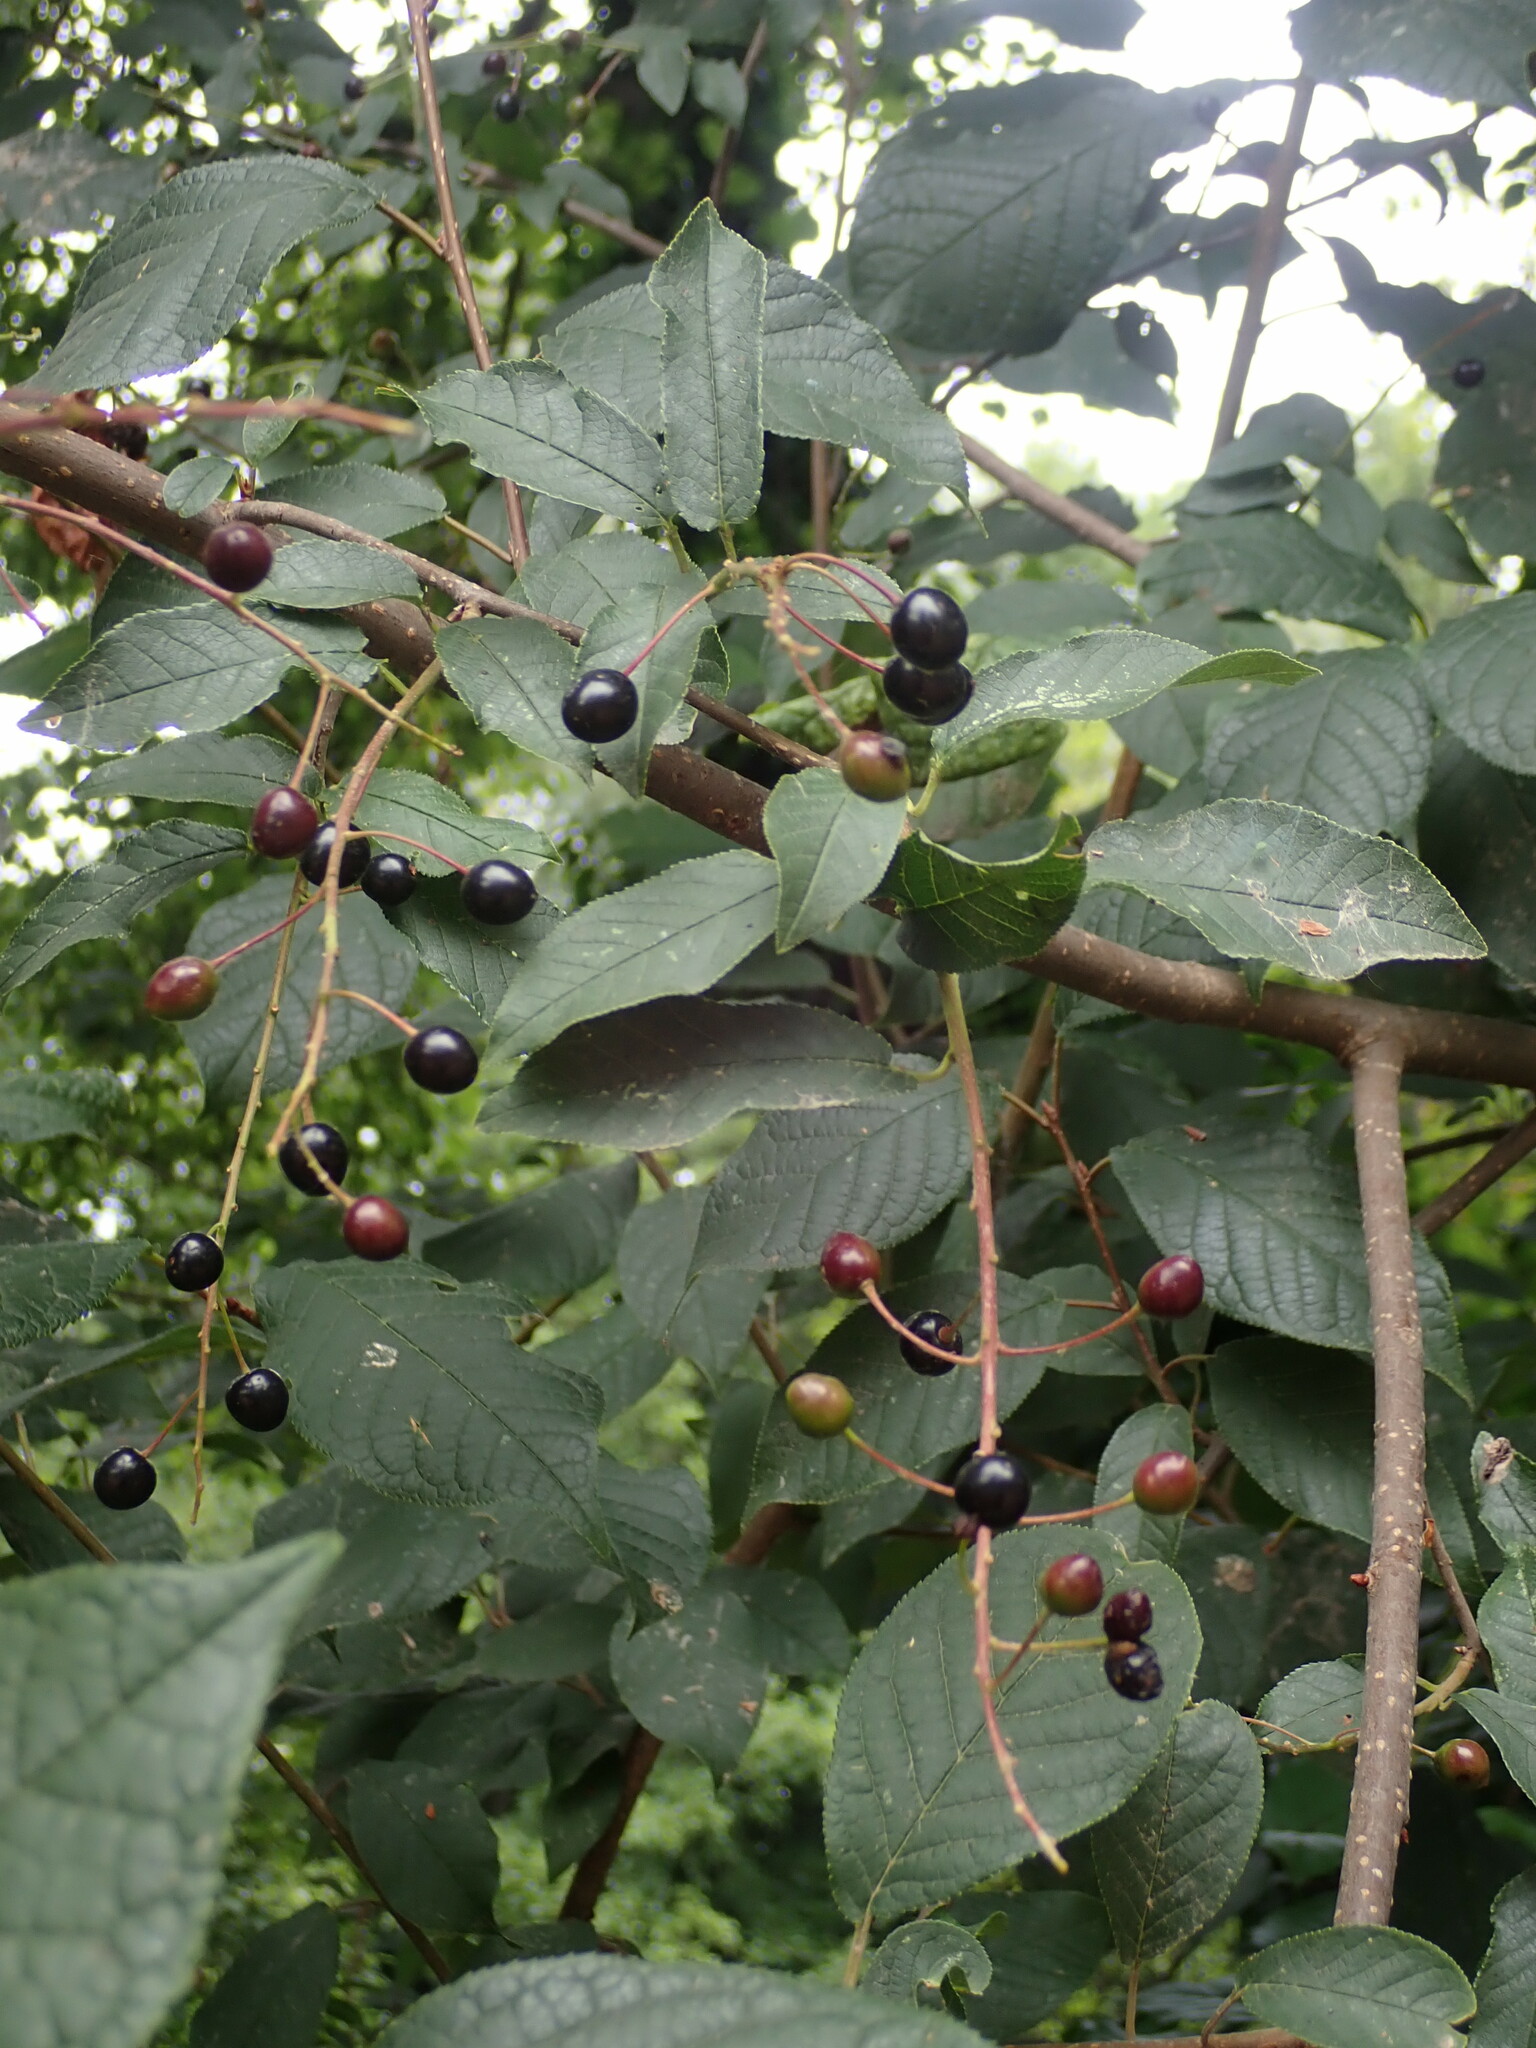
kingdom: Plantae
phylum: Tracheophyta
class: Magnoliopsida
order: Rosales
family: Rosaceae
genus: Prunus
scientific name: Prunus padus
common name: Bird cherry
